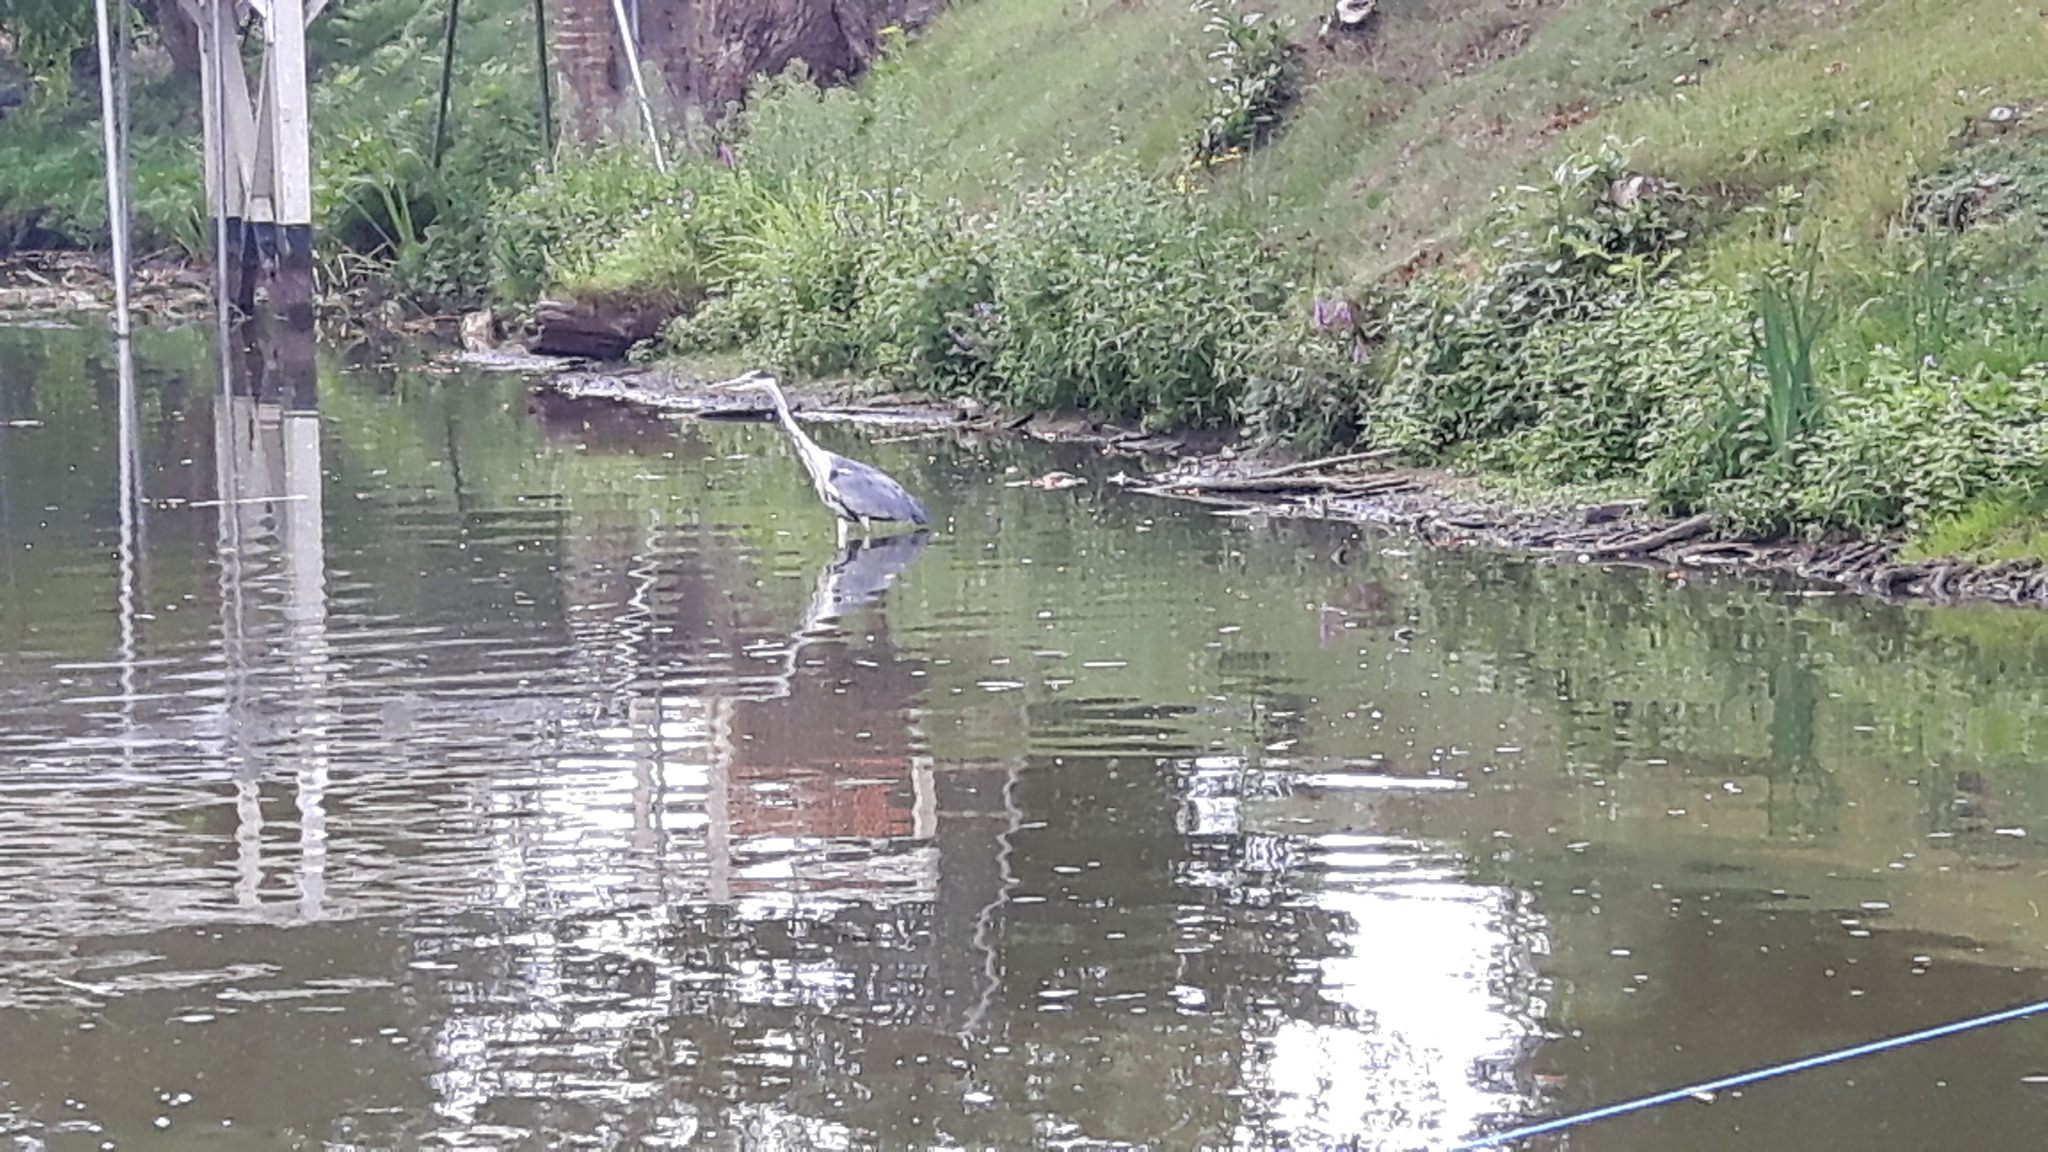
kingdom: Animalia
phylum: Chordata
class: Aves
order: Pelecaniformes
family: Ardeidae
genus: Ardea
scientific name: Ardea cinerea
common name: Grey heron
